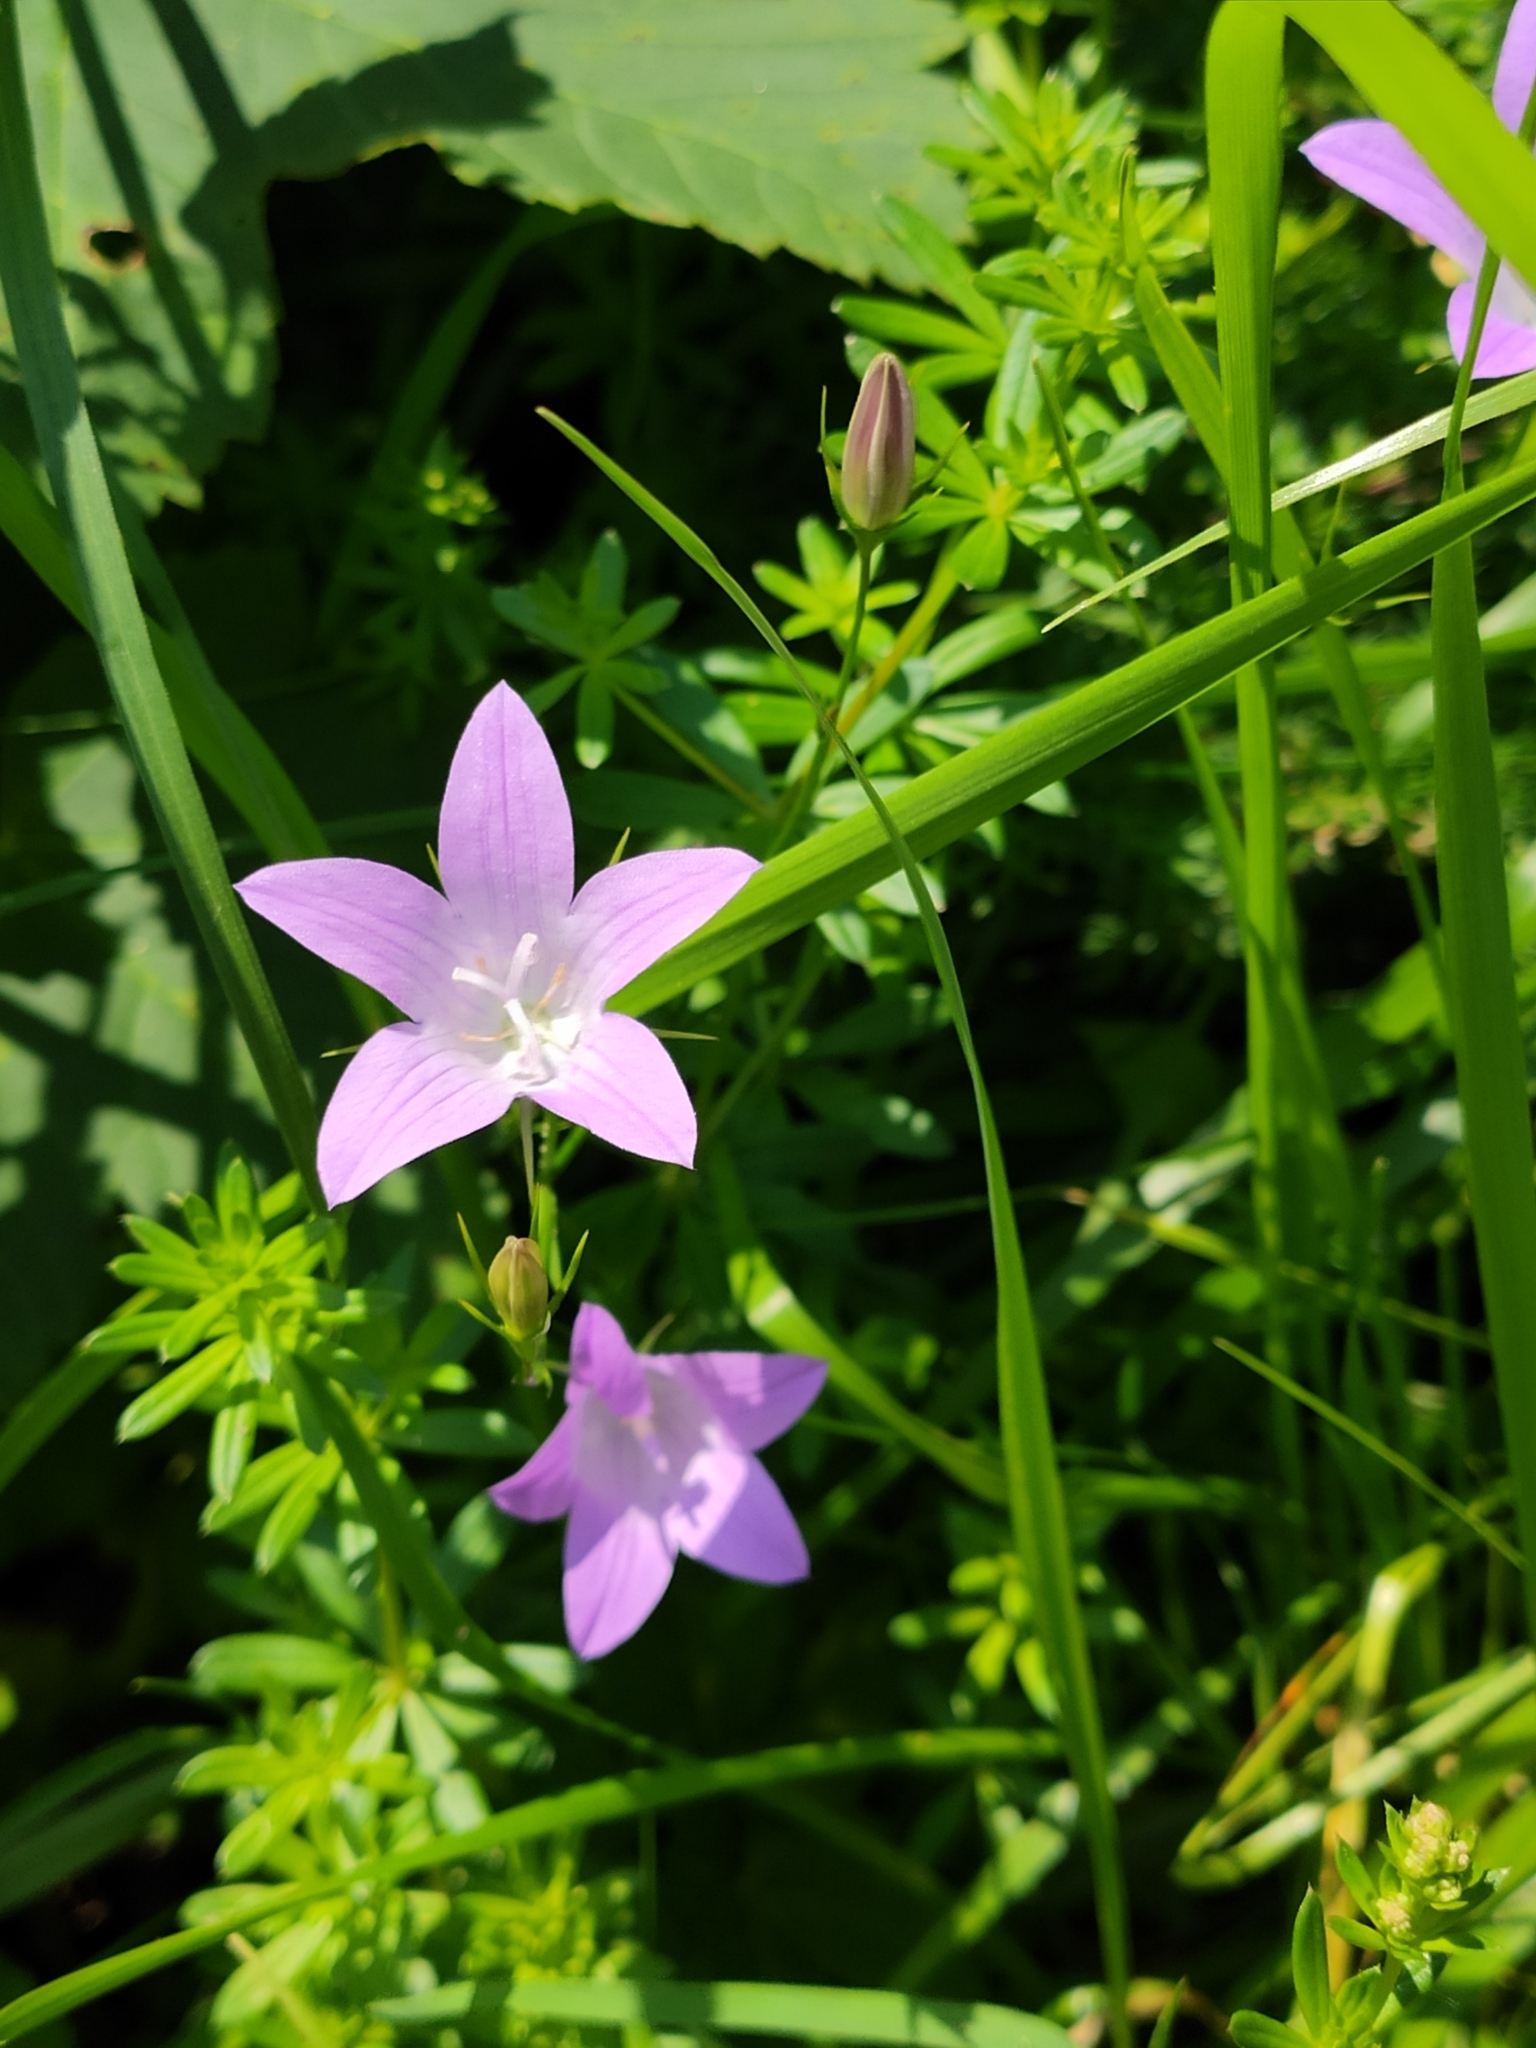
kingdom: Plantae
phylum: Tracheophyta
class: Magnoliopsida
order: Asterales
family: Campanulaceae
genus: Campanula
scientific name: Campanula patula
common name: Spreading bellflower
